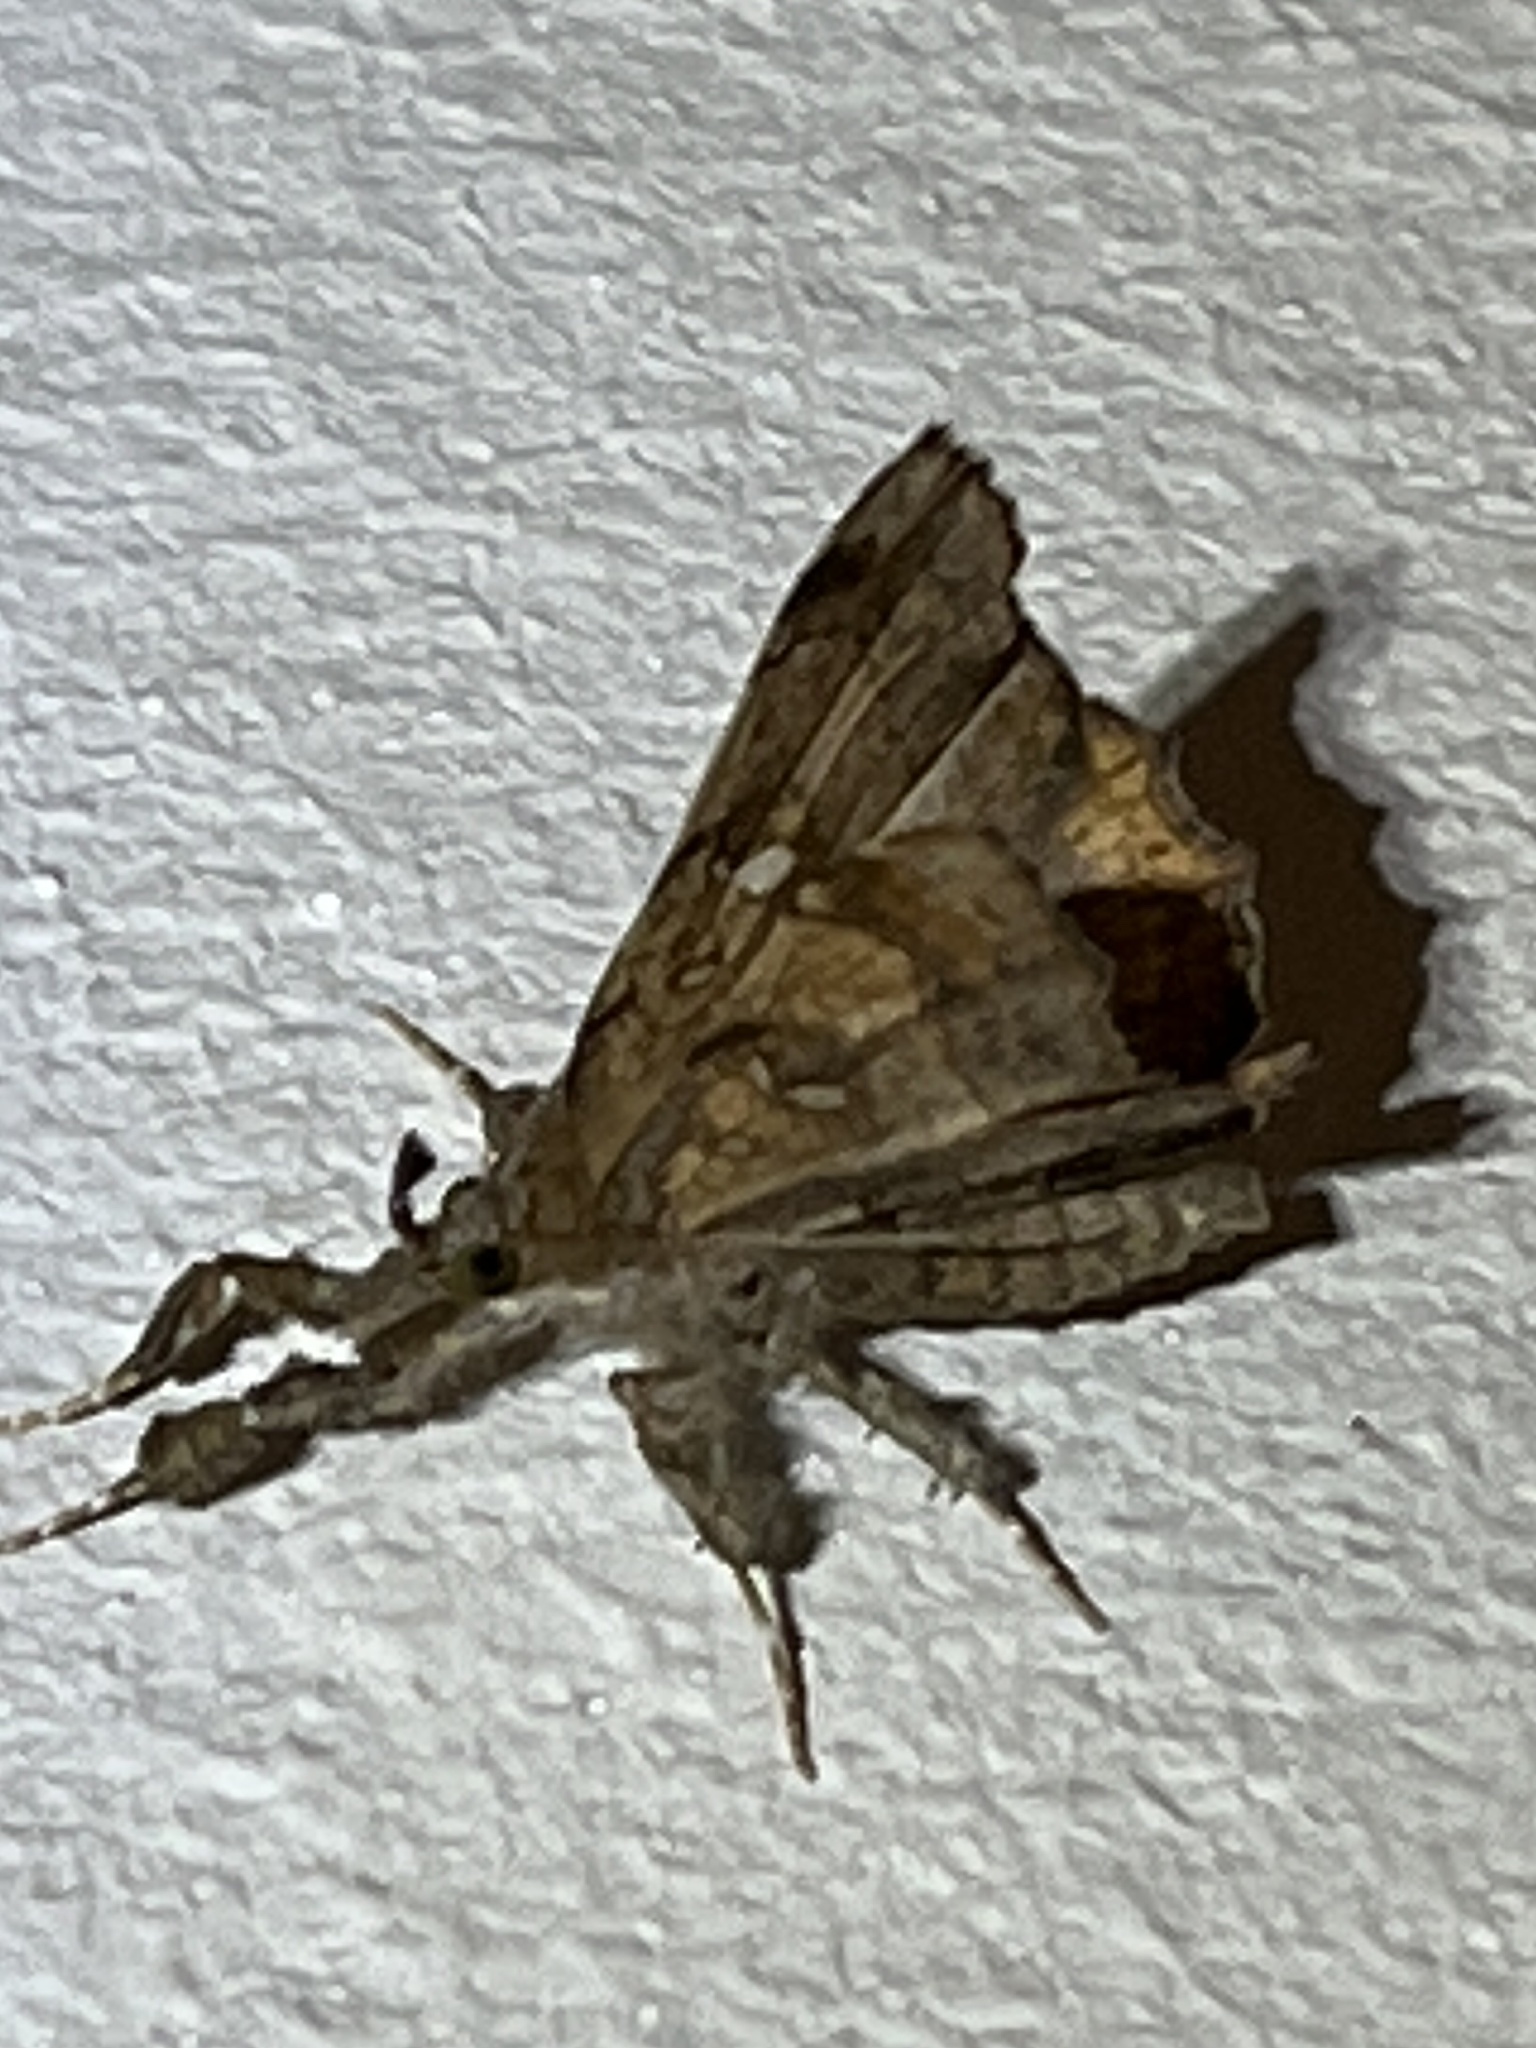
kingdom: Animalia
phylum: Arthropoda
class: Insecta
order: Lepidoptera
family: Erebidae
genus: Egnasia
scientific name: Egnasia vicaria
